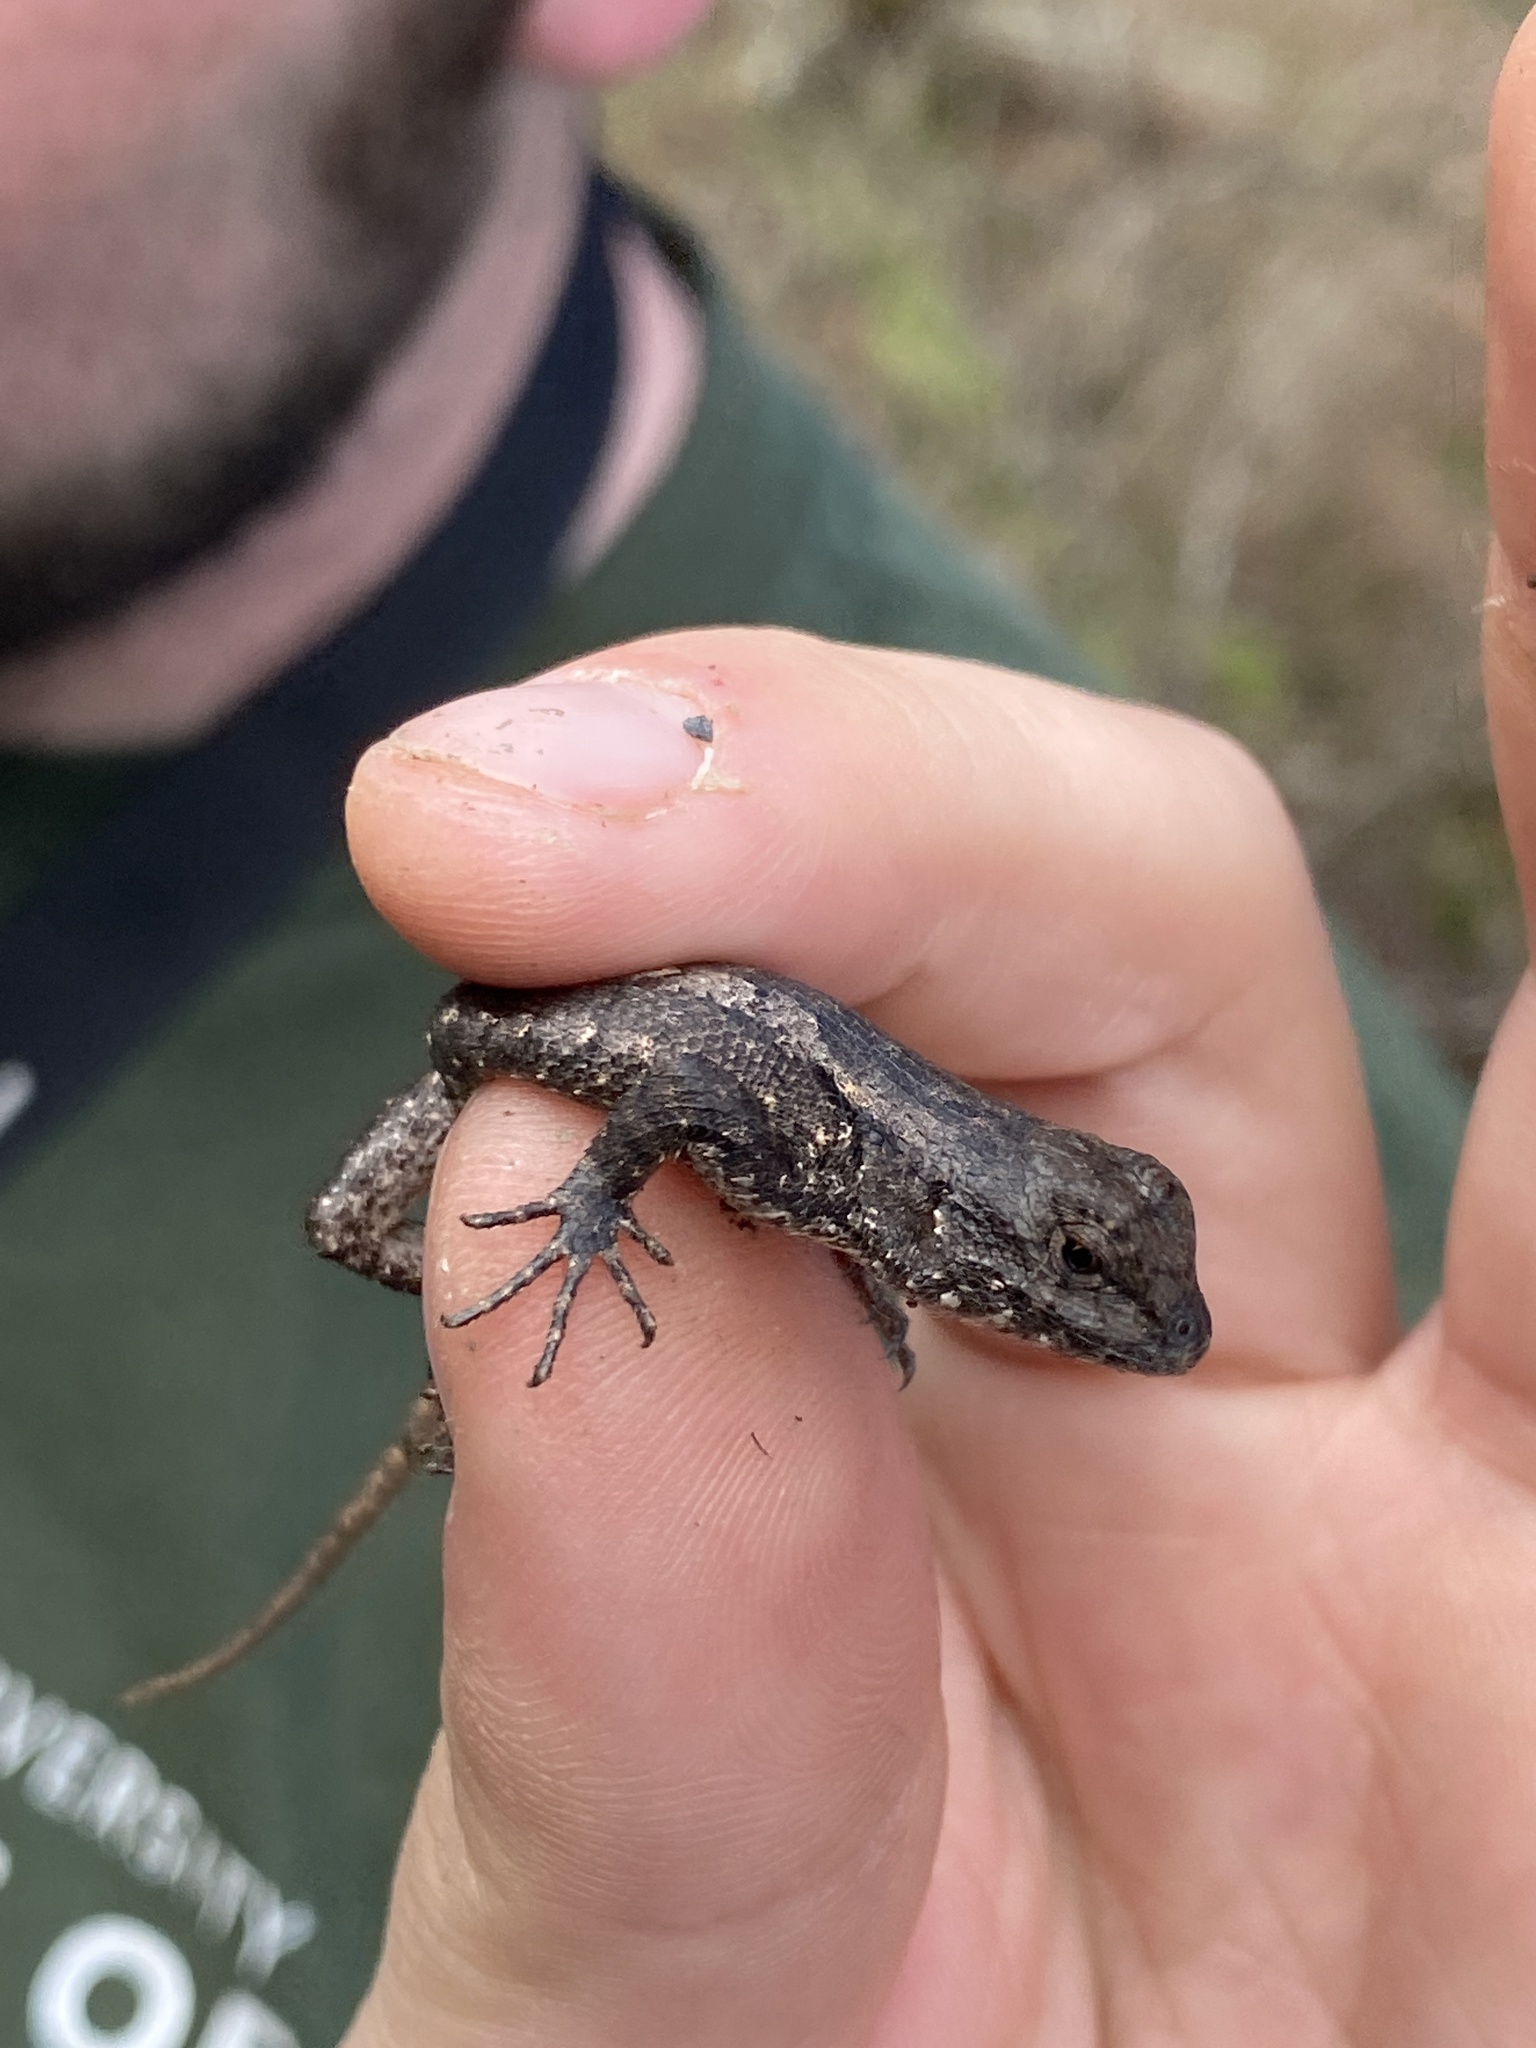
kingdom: Animalia
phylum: Chordata
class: Squamata
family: Phrynosomatidae
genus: Sceloporus
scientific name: Sceloporus consobrinus
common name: Southern prairie lizard
